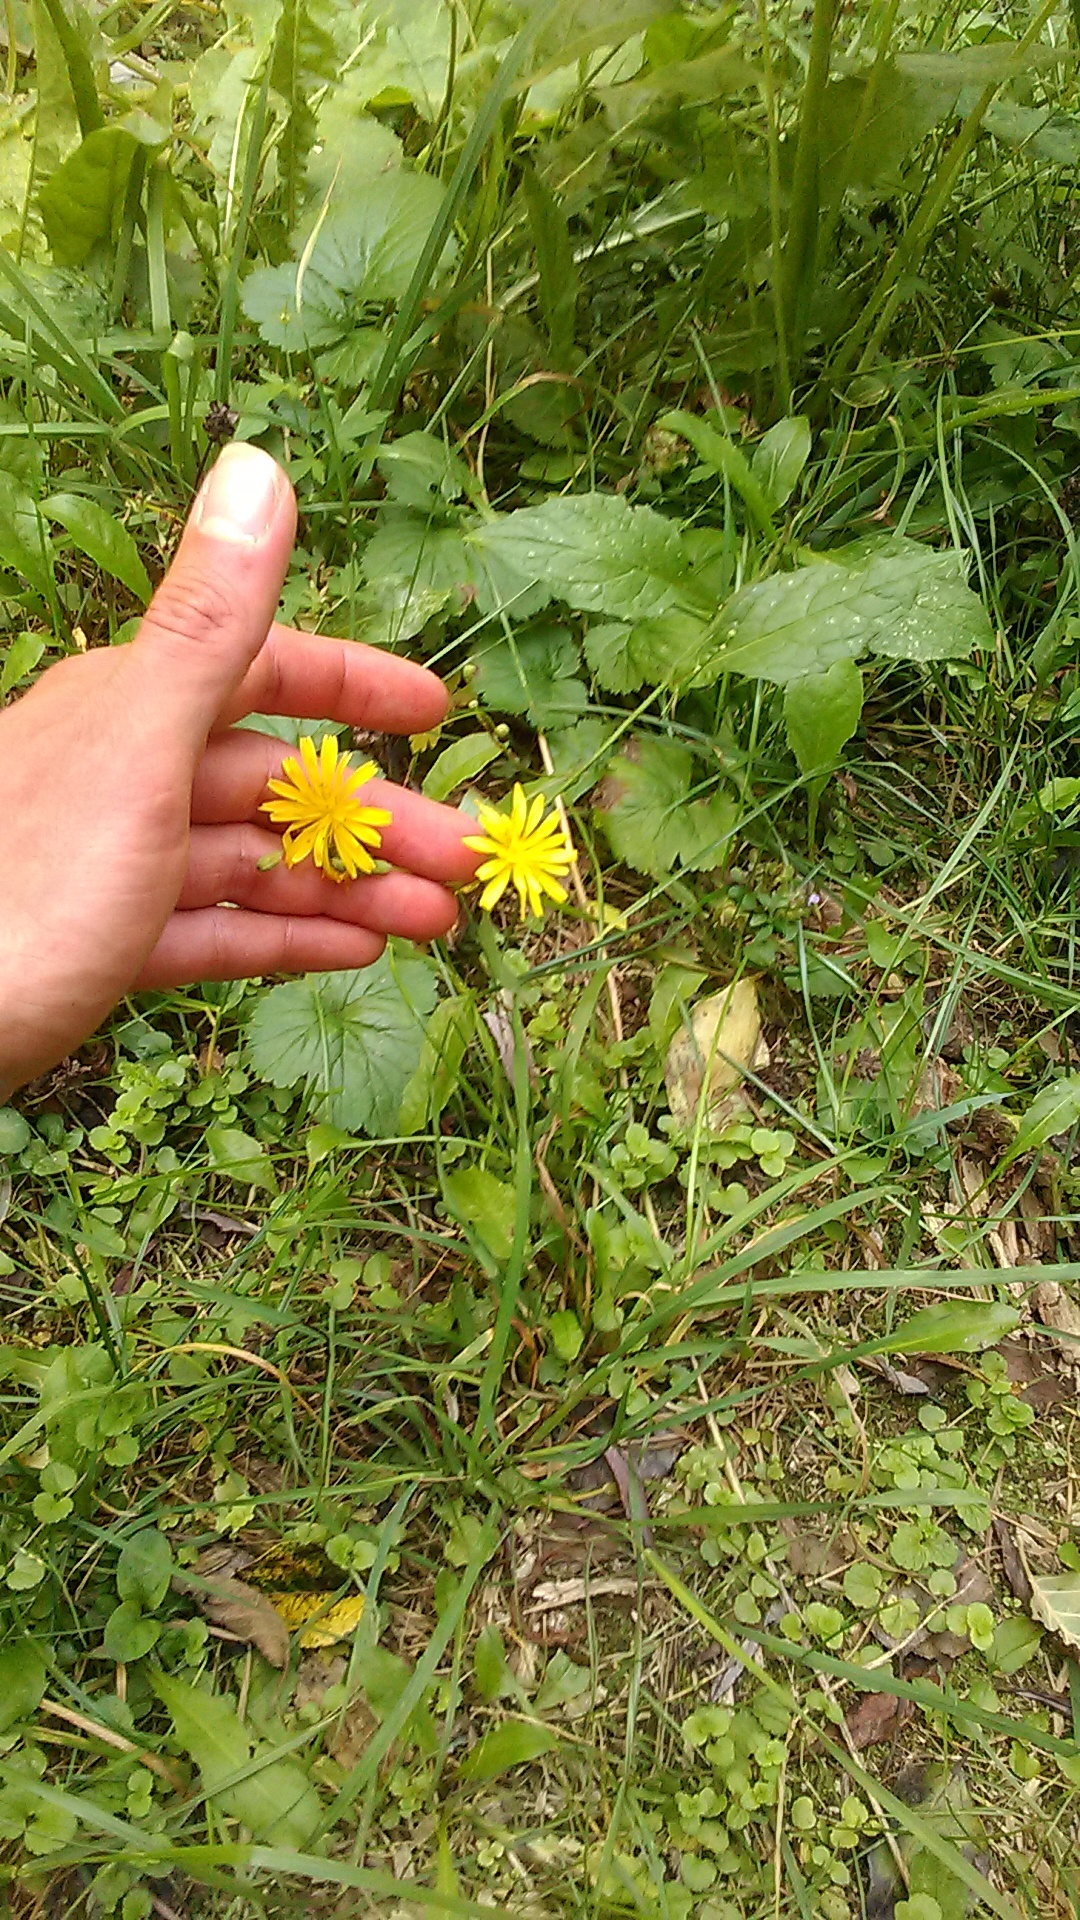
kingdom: Plantae
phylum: Tracheophyta
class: Magnoliopsida
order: Asterales
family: Asteraceae
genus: Lapsana
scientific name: Lapsana communis
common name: Nipplewort
